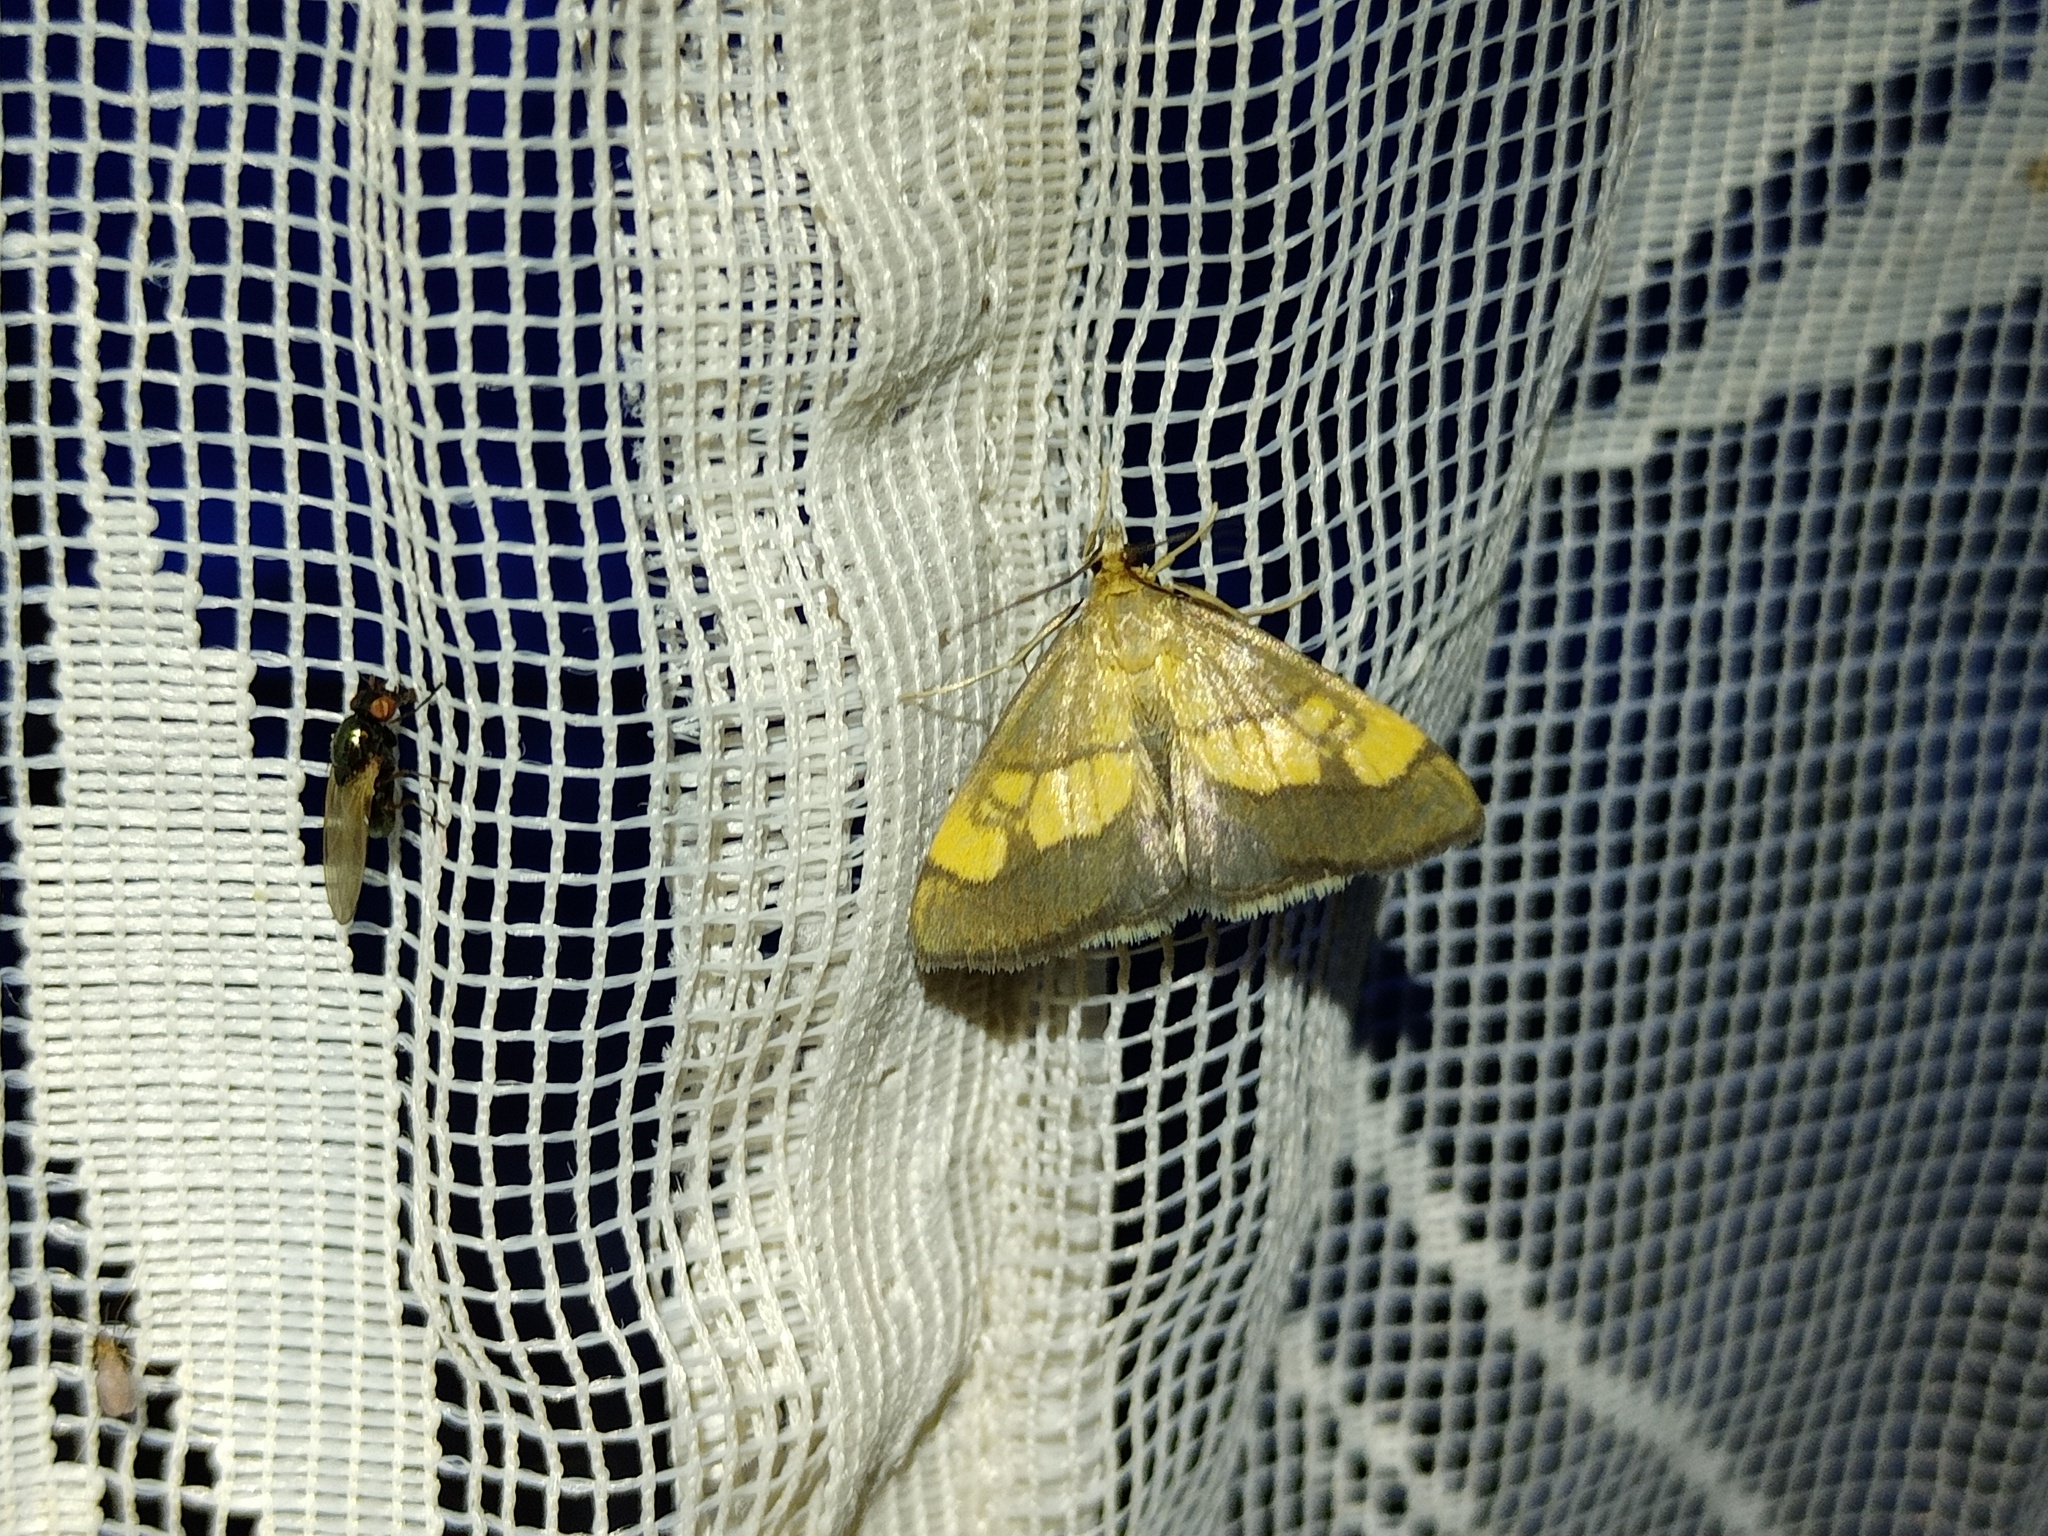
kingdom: Animalia
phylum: Arthropoda
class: Insecta
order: Lepidoptera
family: Crambidae
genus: Evergestis
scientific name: Evergestis limbata
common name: Dark bordered pearl
